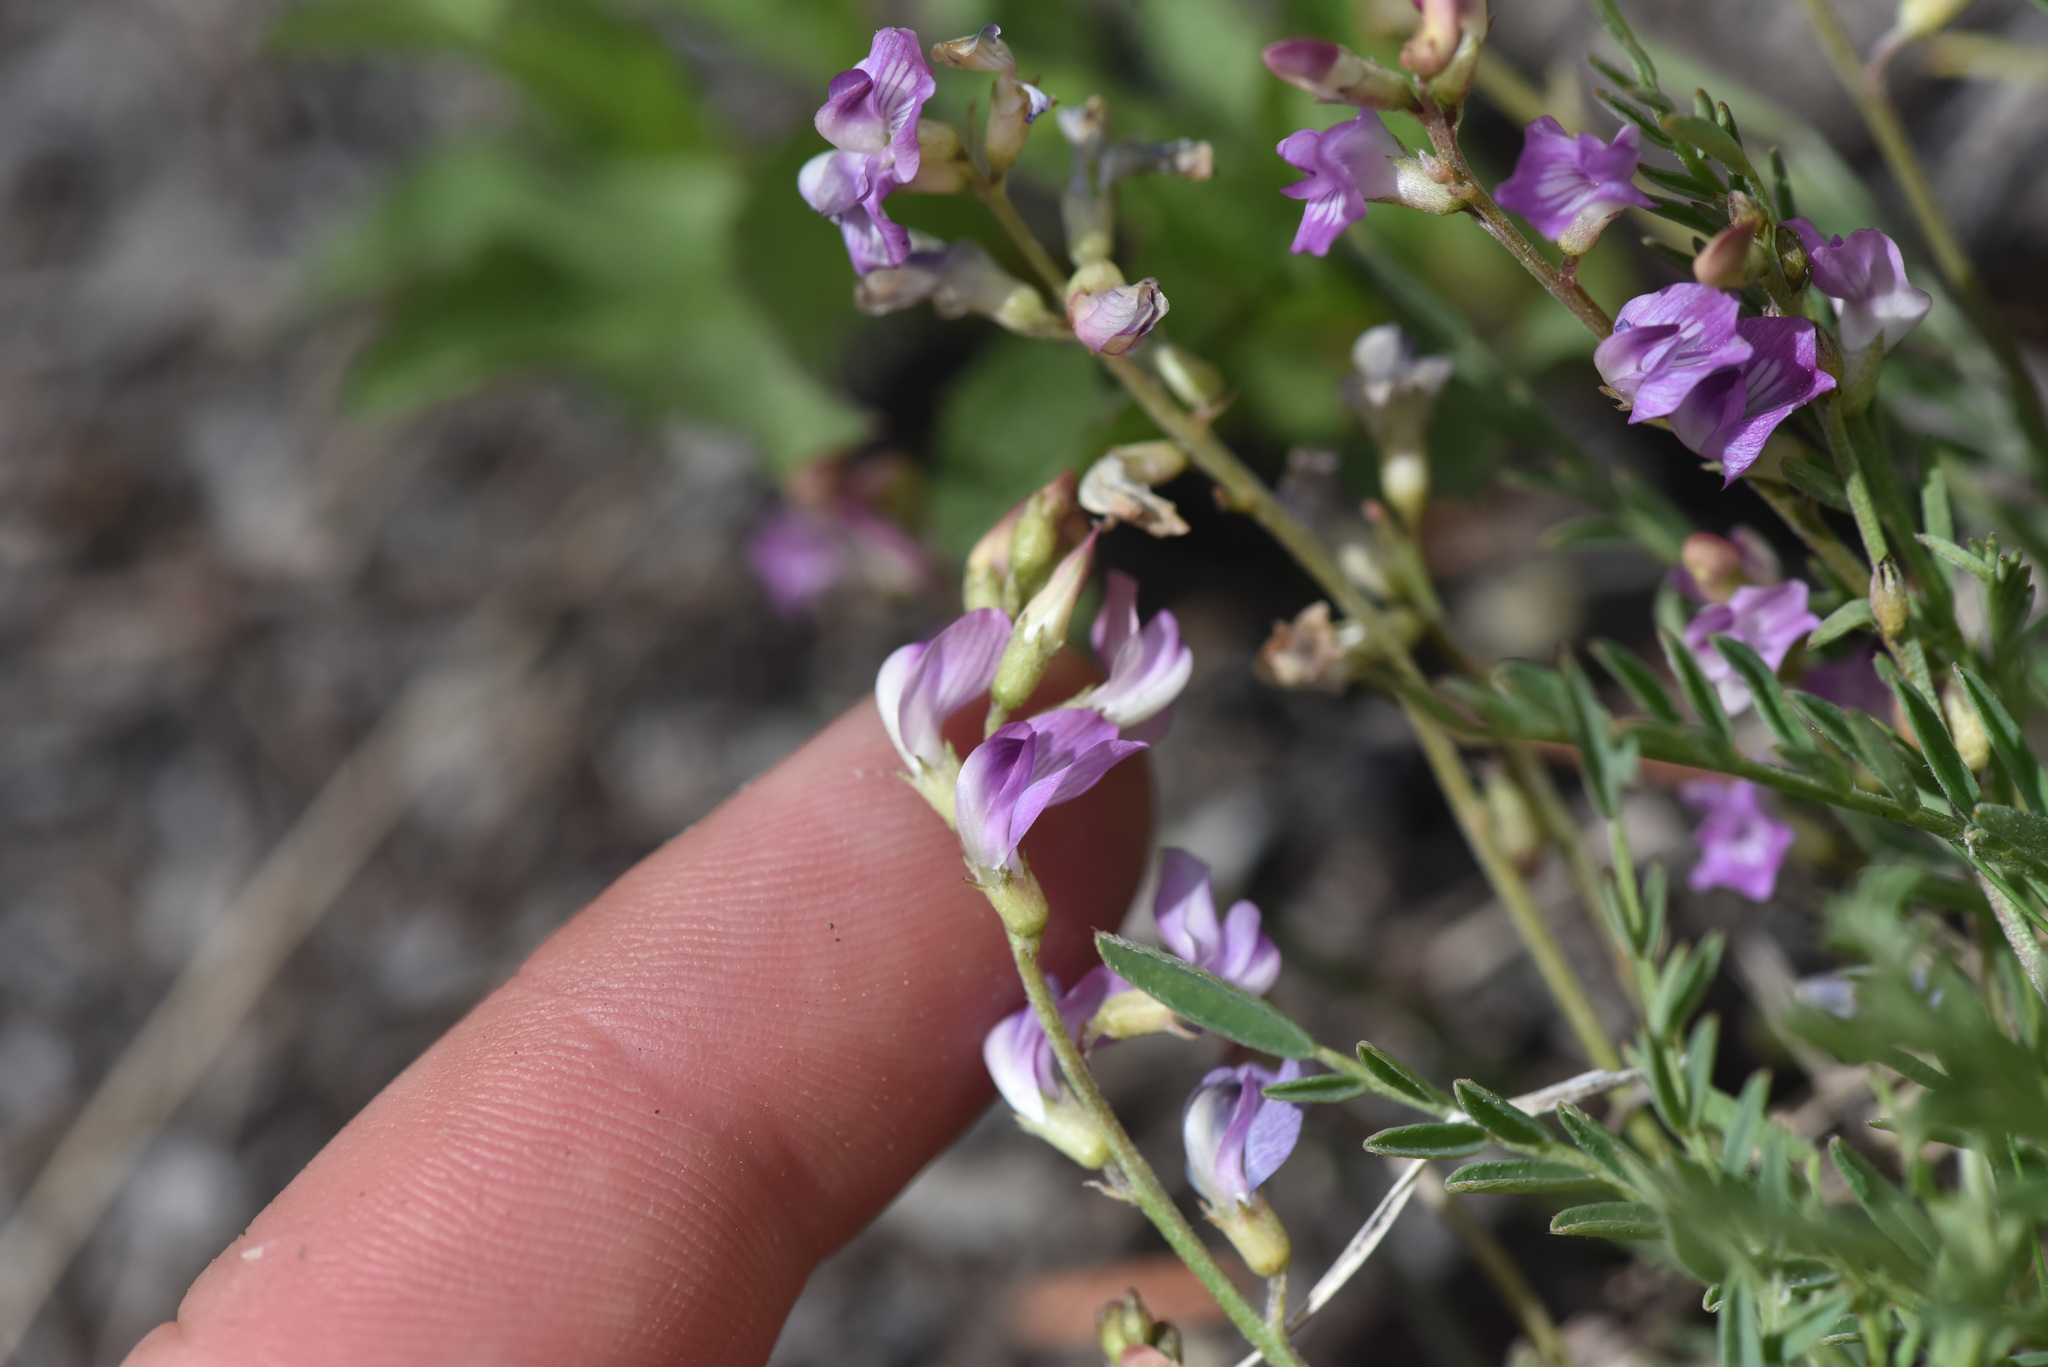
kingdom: Plantae
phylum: Tracheophyta
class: Magnoliopsida
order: Fabales
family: Fabaceae
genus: Astragalus
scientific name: Astragalus miser
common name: Timber milkvetch
